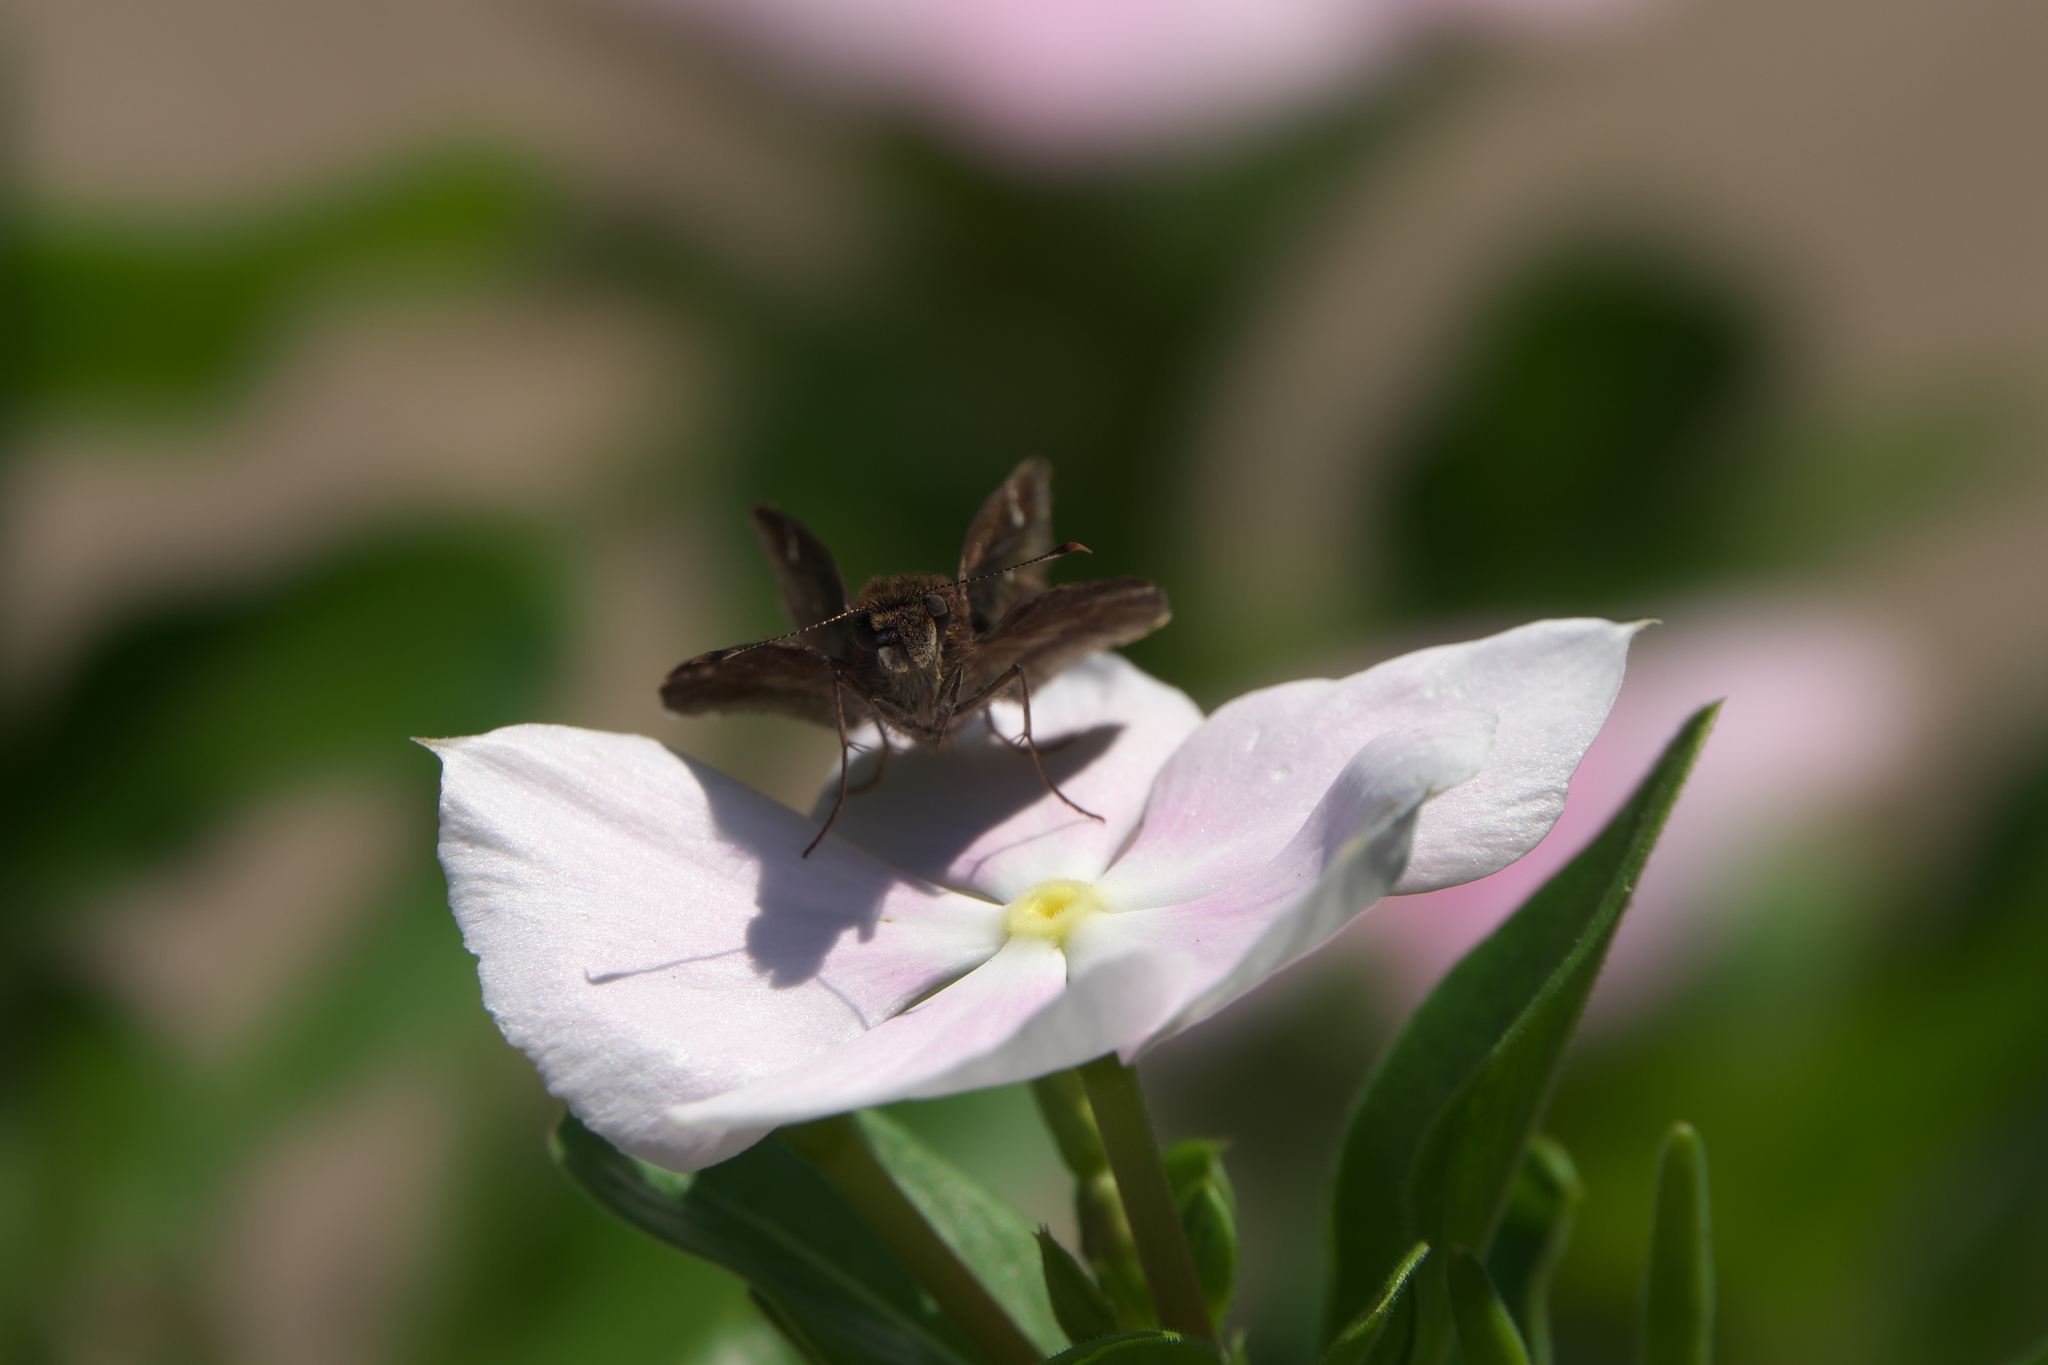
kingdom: Animalia
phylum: Arthropoda
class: Insecta
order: Lepidoptera
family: Hesperiidae
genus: Lerema
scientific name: Lerema accius
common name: Clouded skipper
